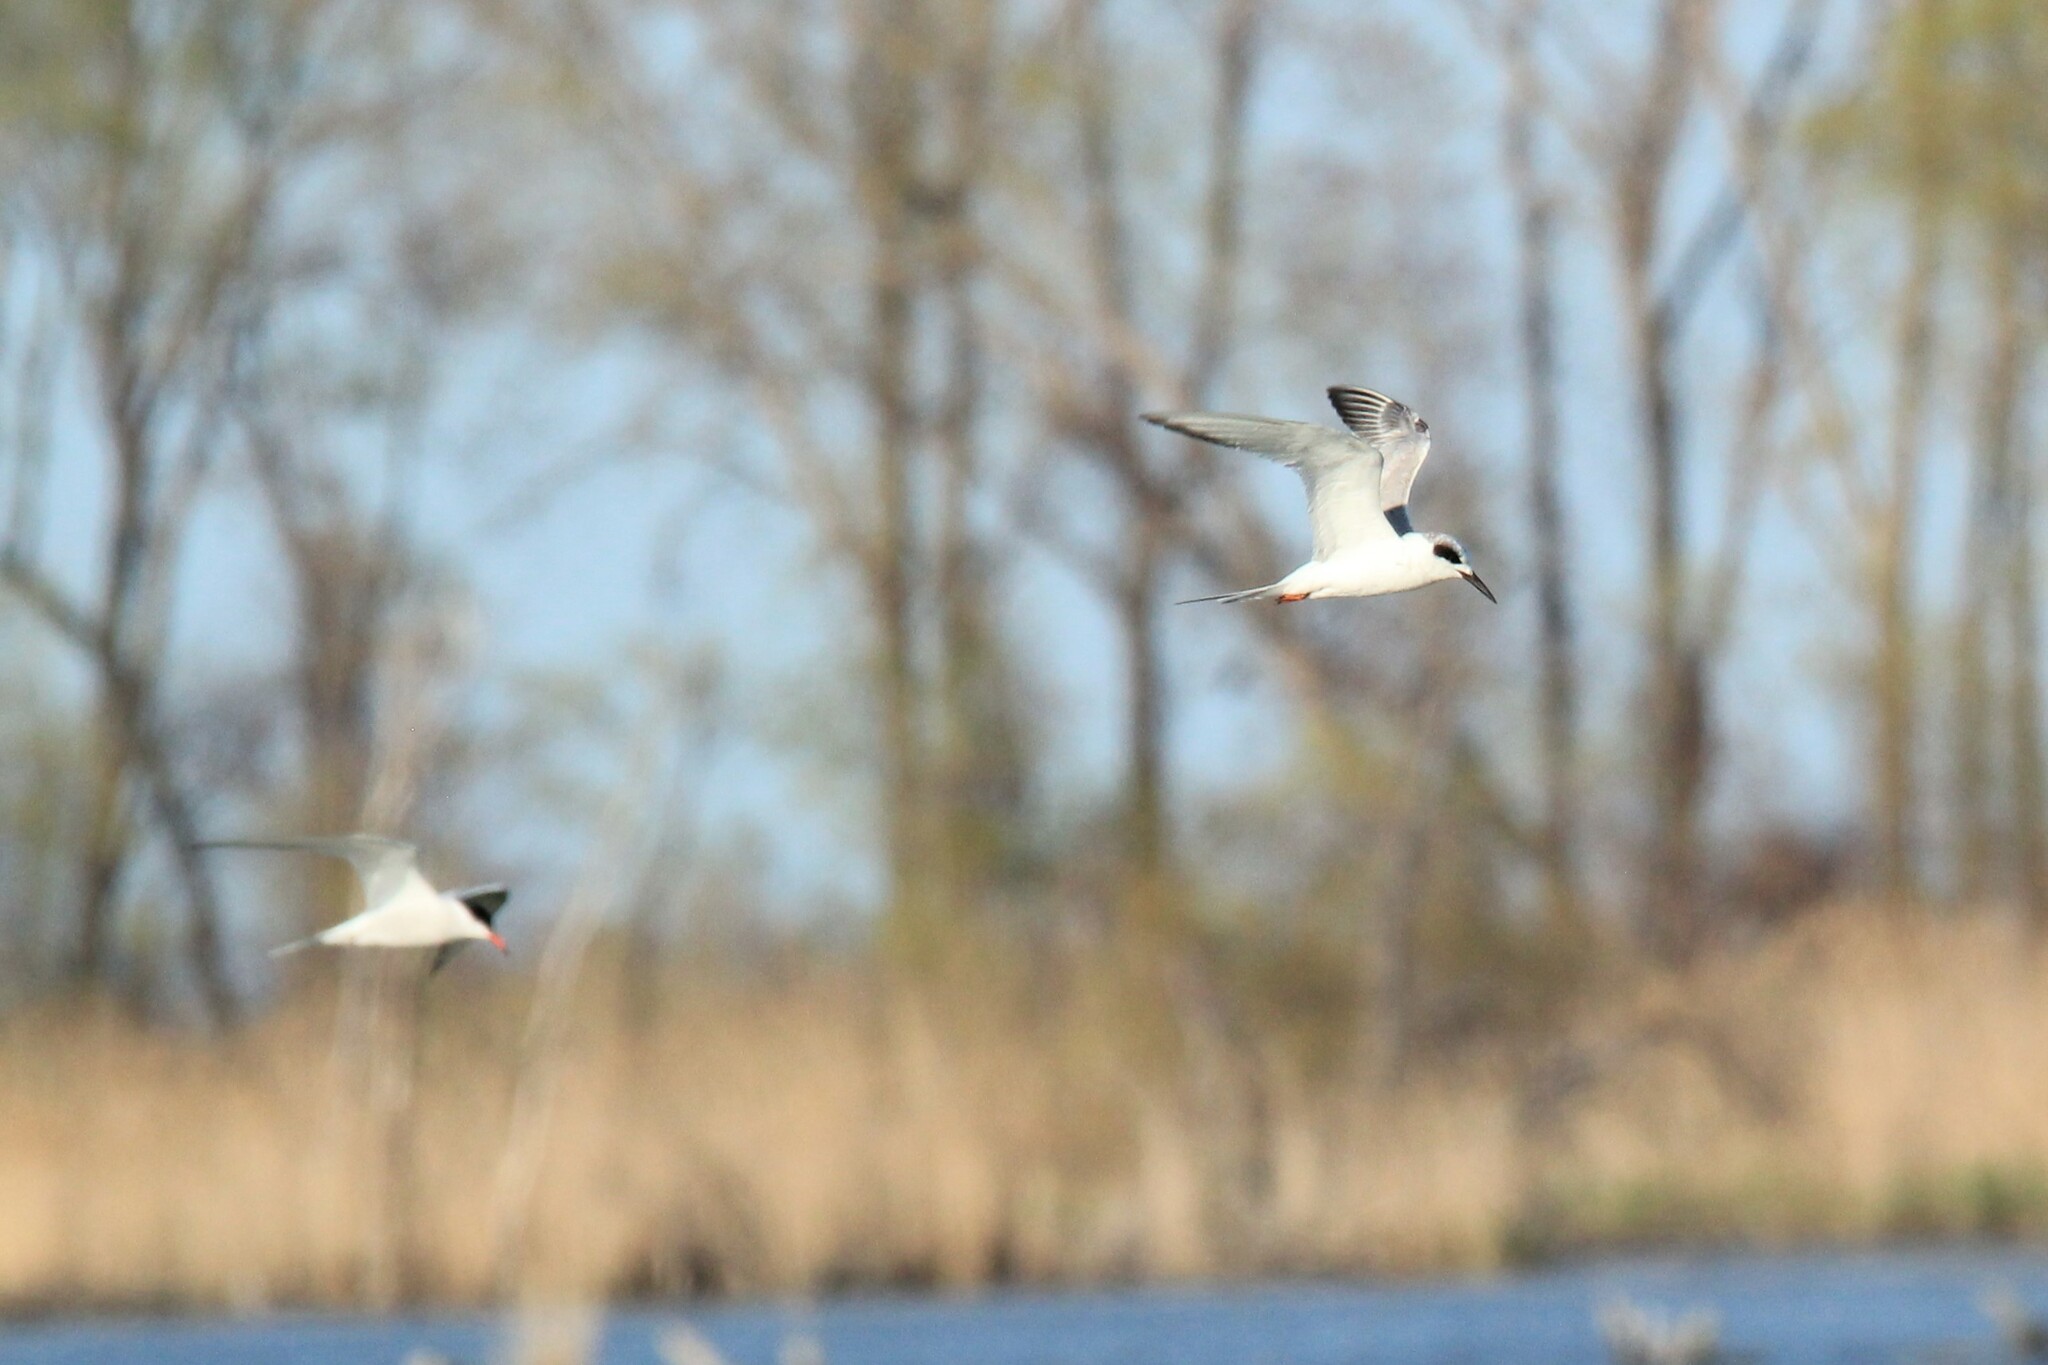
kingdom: Animalia
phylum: Chordata
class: Aves
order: Charadriiformes
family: Laridae
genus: Sterna
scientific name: Sterna forsteri
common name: Forster's tern
